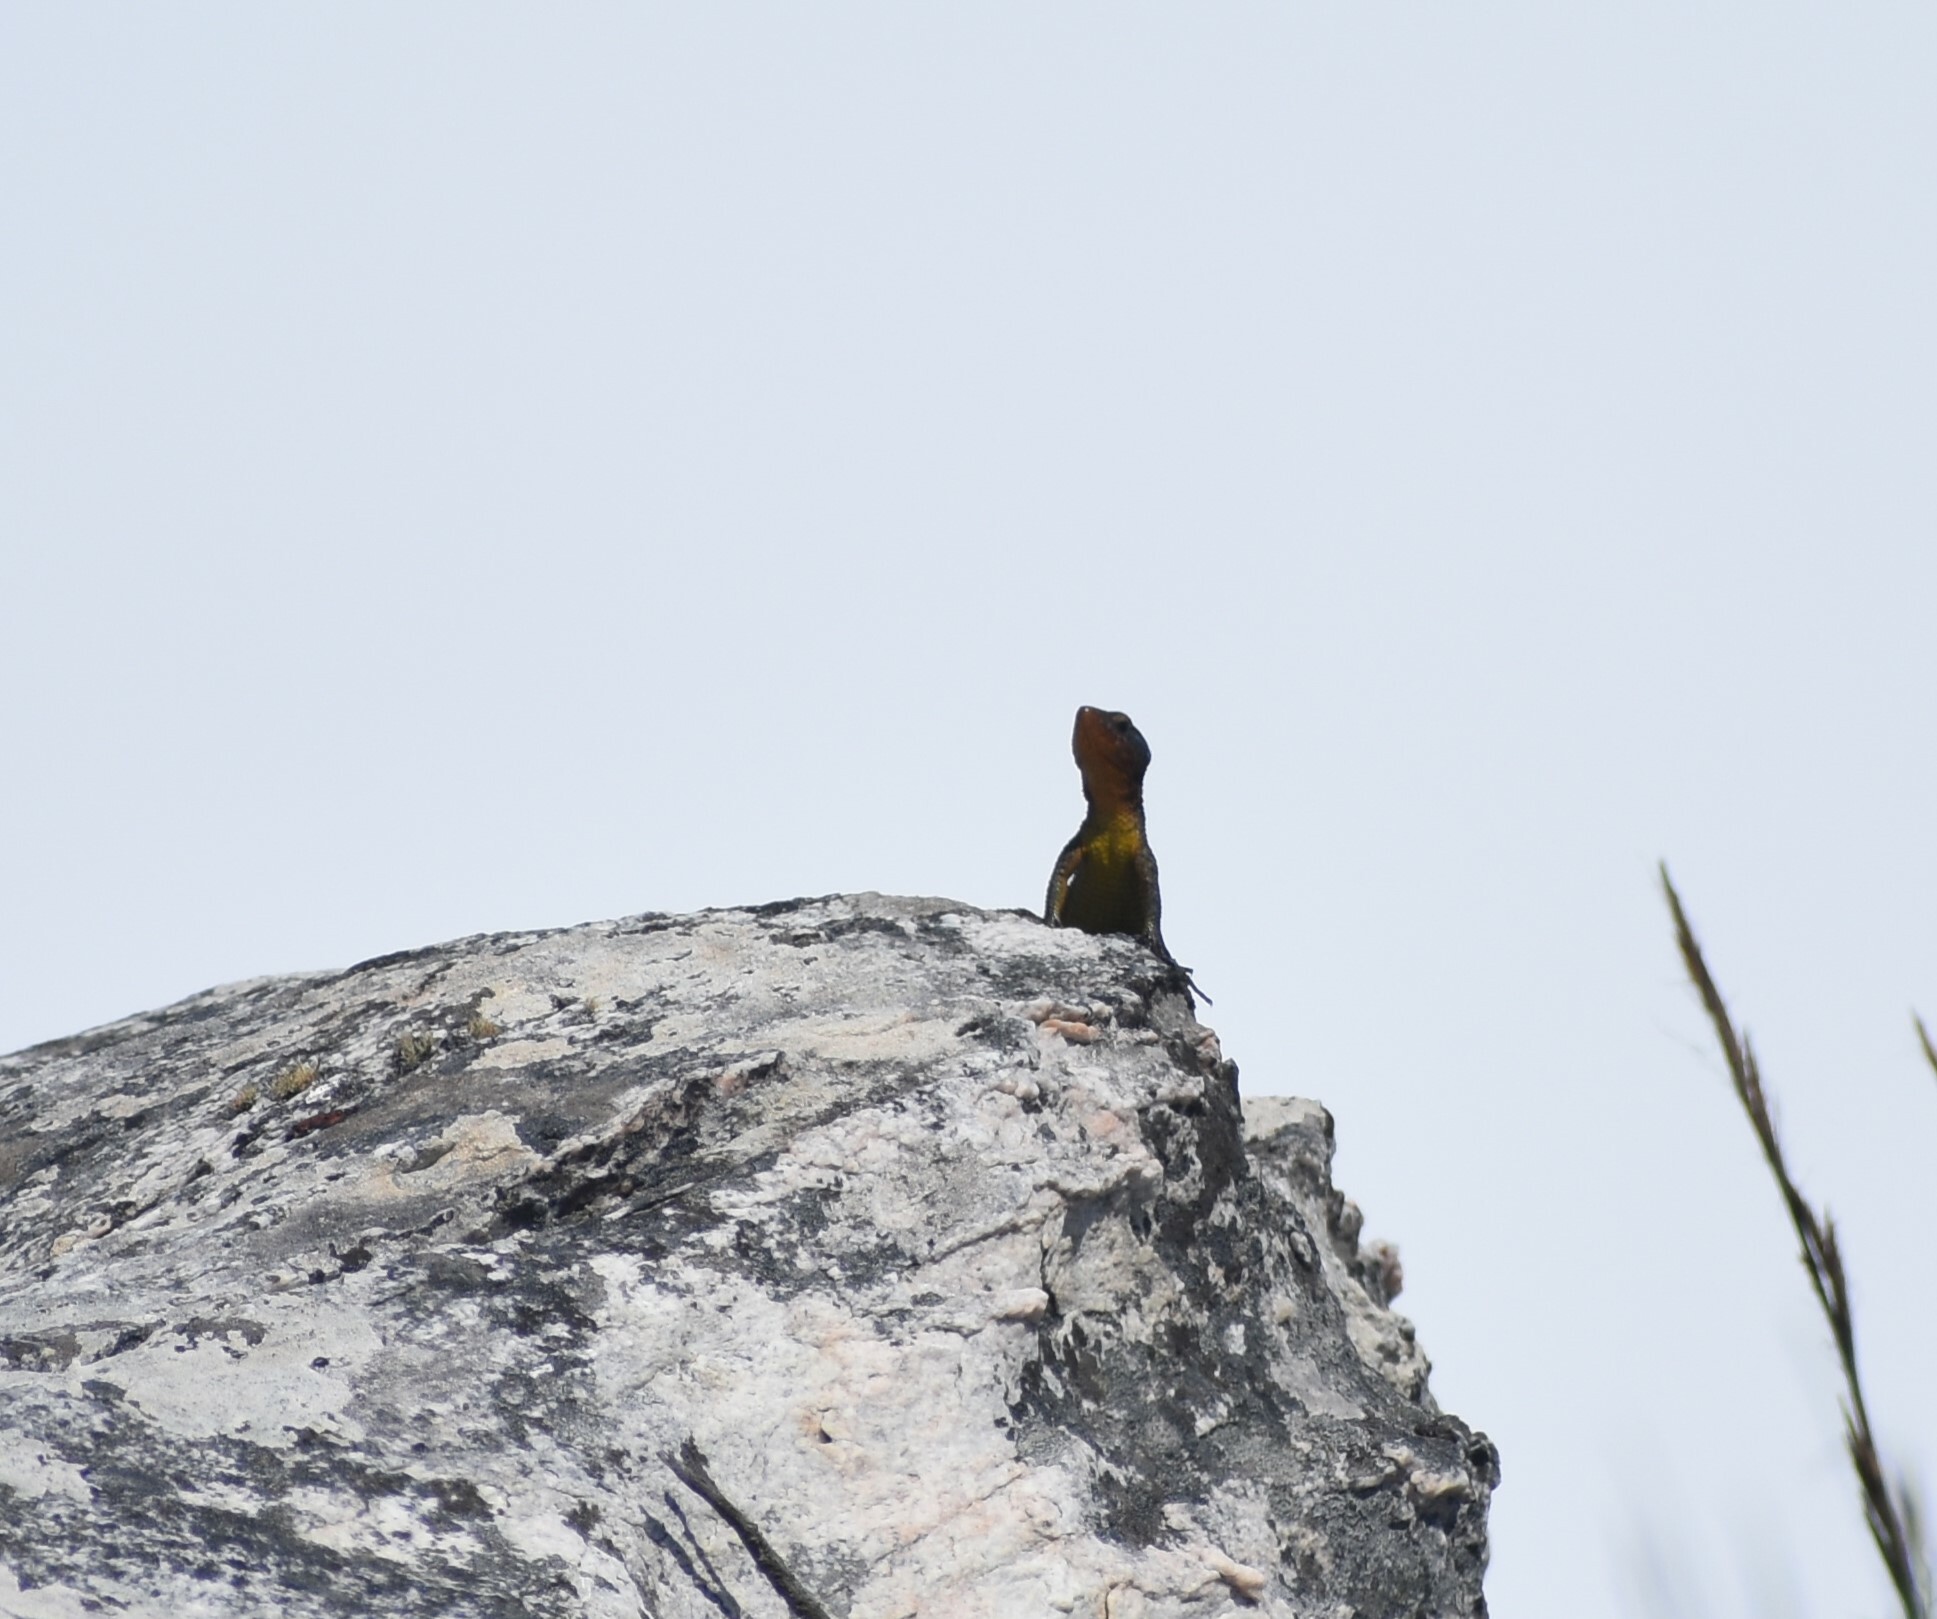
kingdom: Animalia
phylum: Chordata
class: Squamata
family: Cordylidae
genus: Ninurta
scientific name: Ninurta coeruleopunctatus
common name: Blue-spotted girdled lizard
